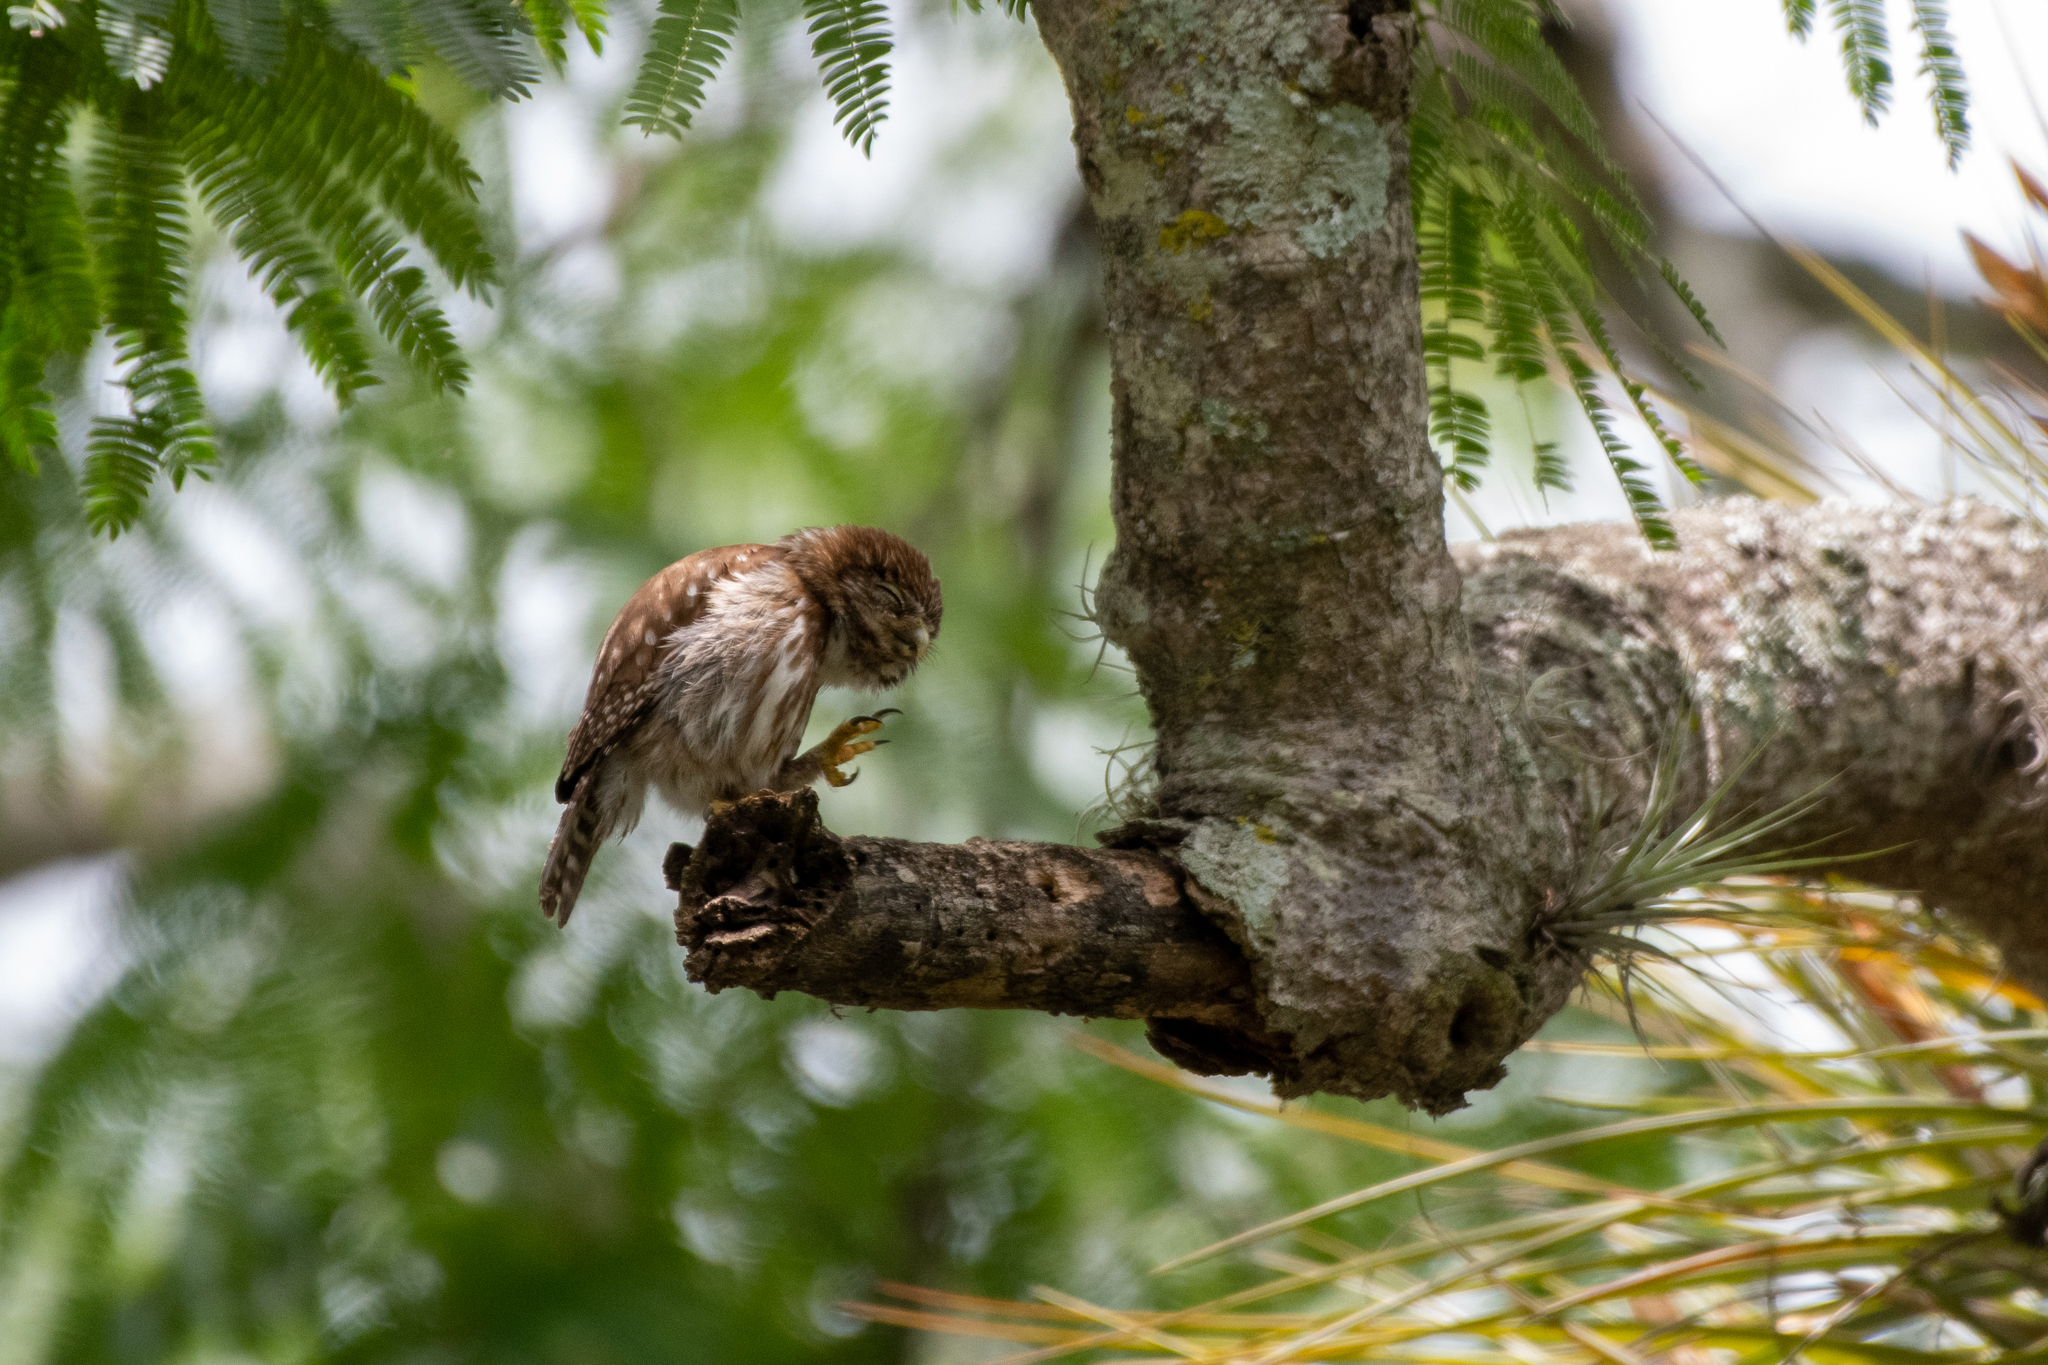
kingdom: Animalia
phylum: Chordata
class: Aves
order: Strigiformes
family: Strigidae
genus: Glaucidium
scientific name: Glaucidium brasilianum
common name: Ferruginous pygmy-owl
